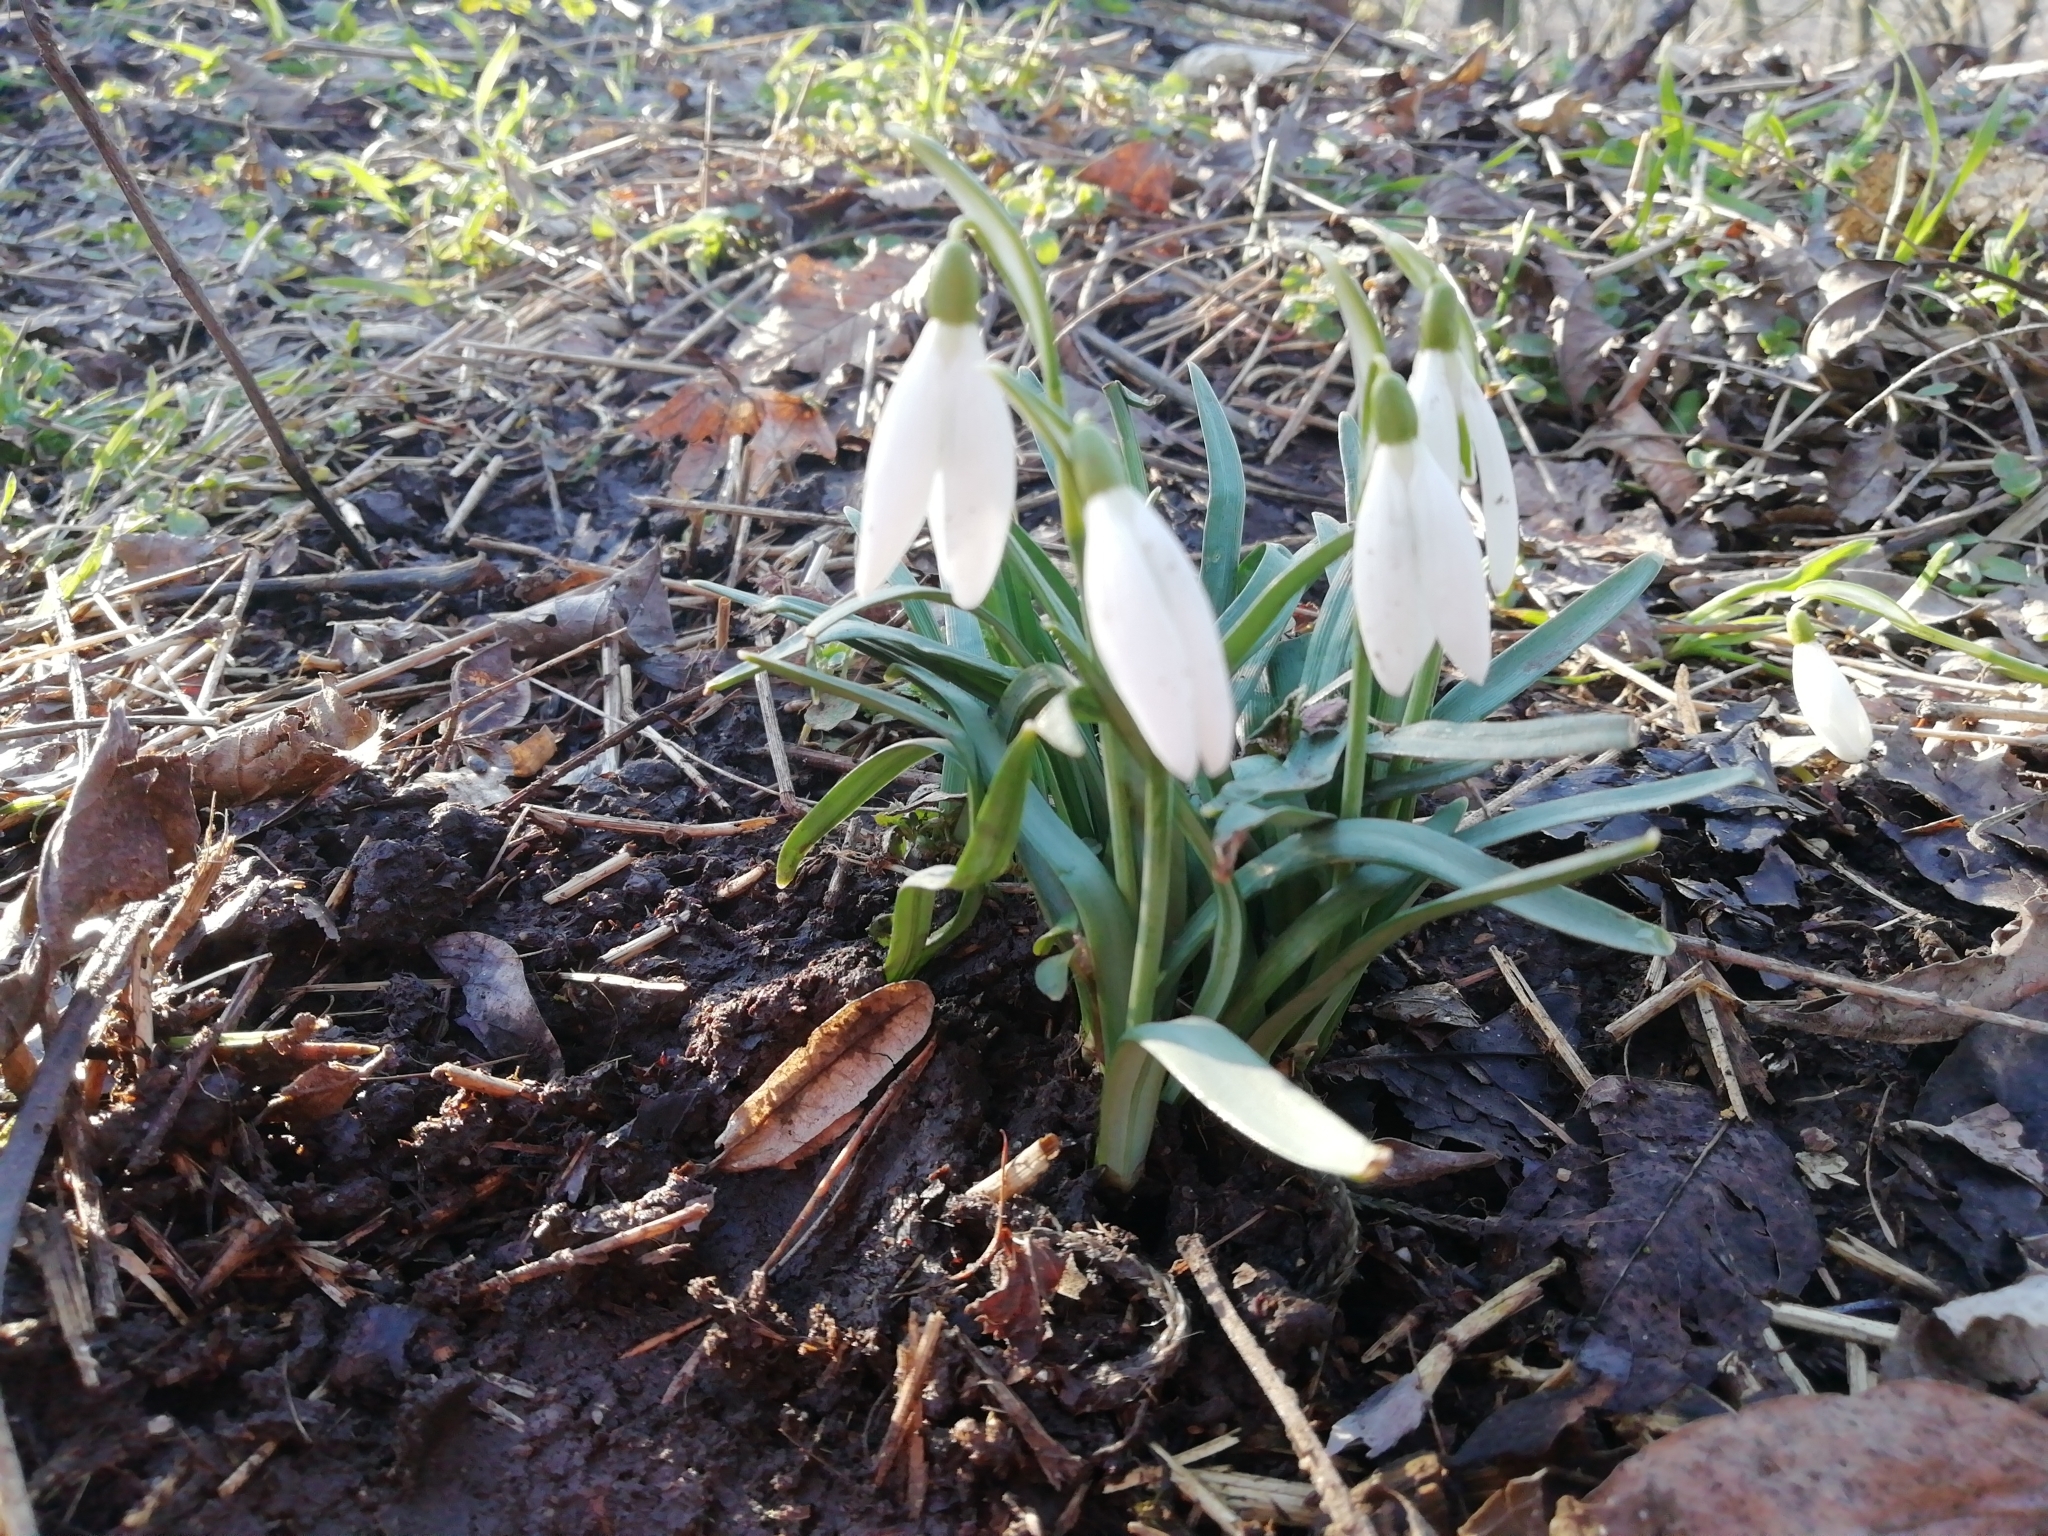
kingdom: Plantae
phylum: Tracheophyta
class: Liliopsida
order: Asparagales
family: Amaryllidaceae
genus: Galanthus
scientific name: Galanthus nivalis
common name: Snowdrop
